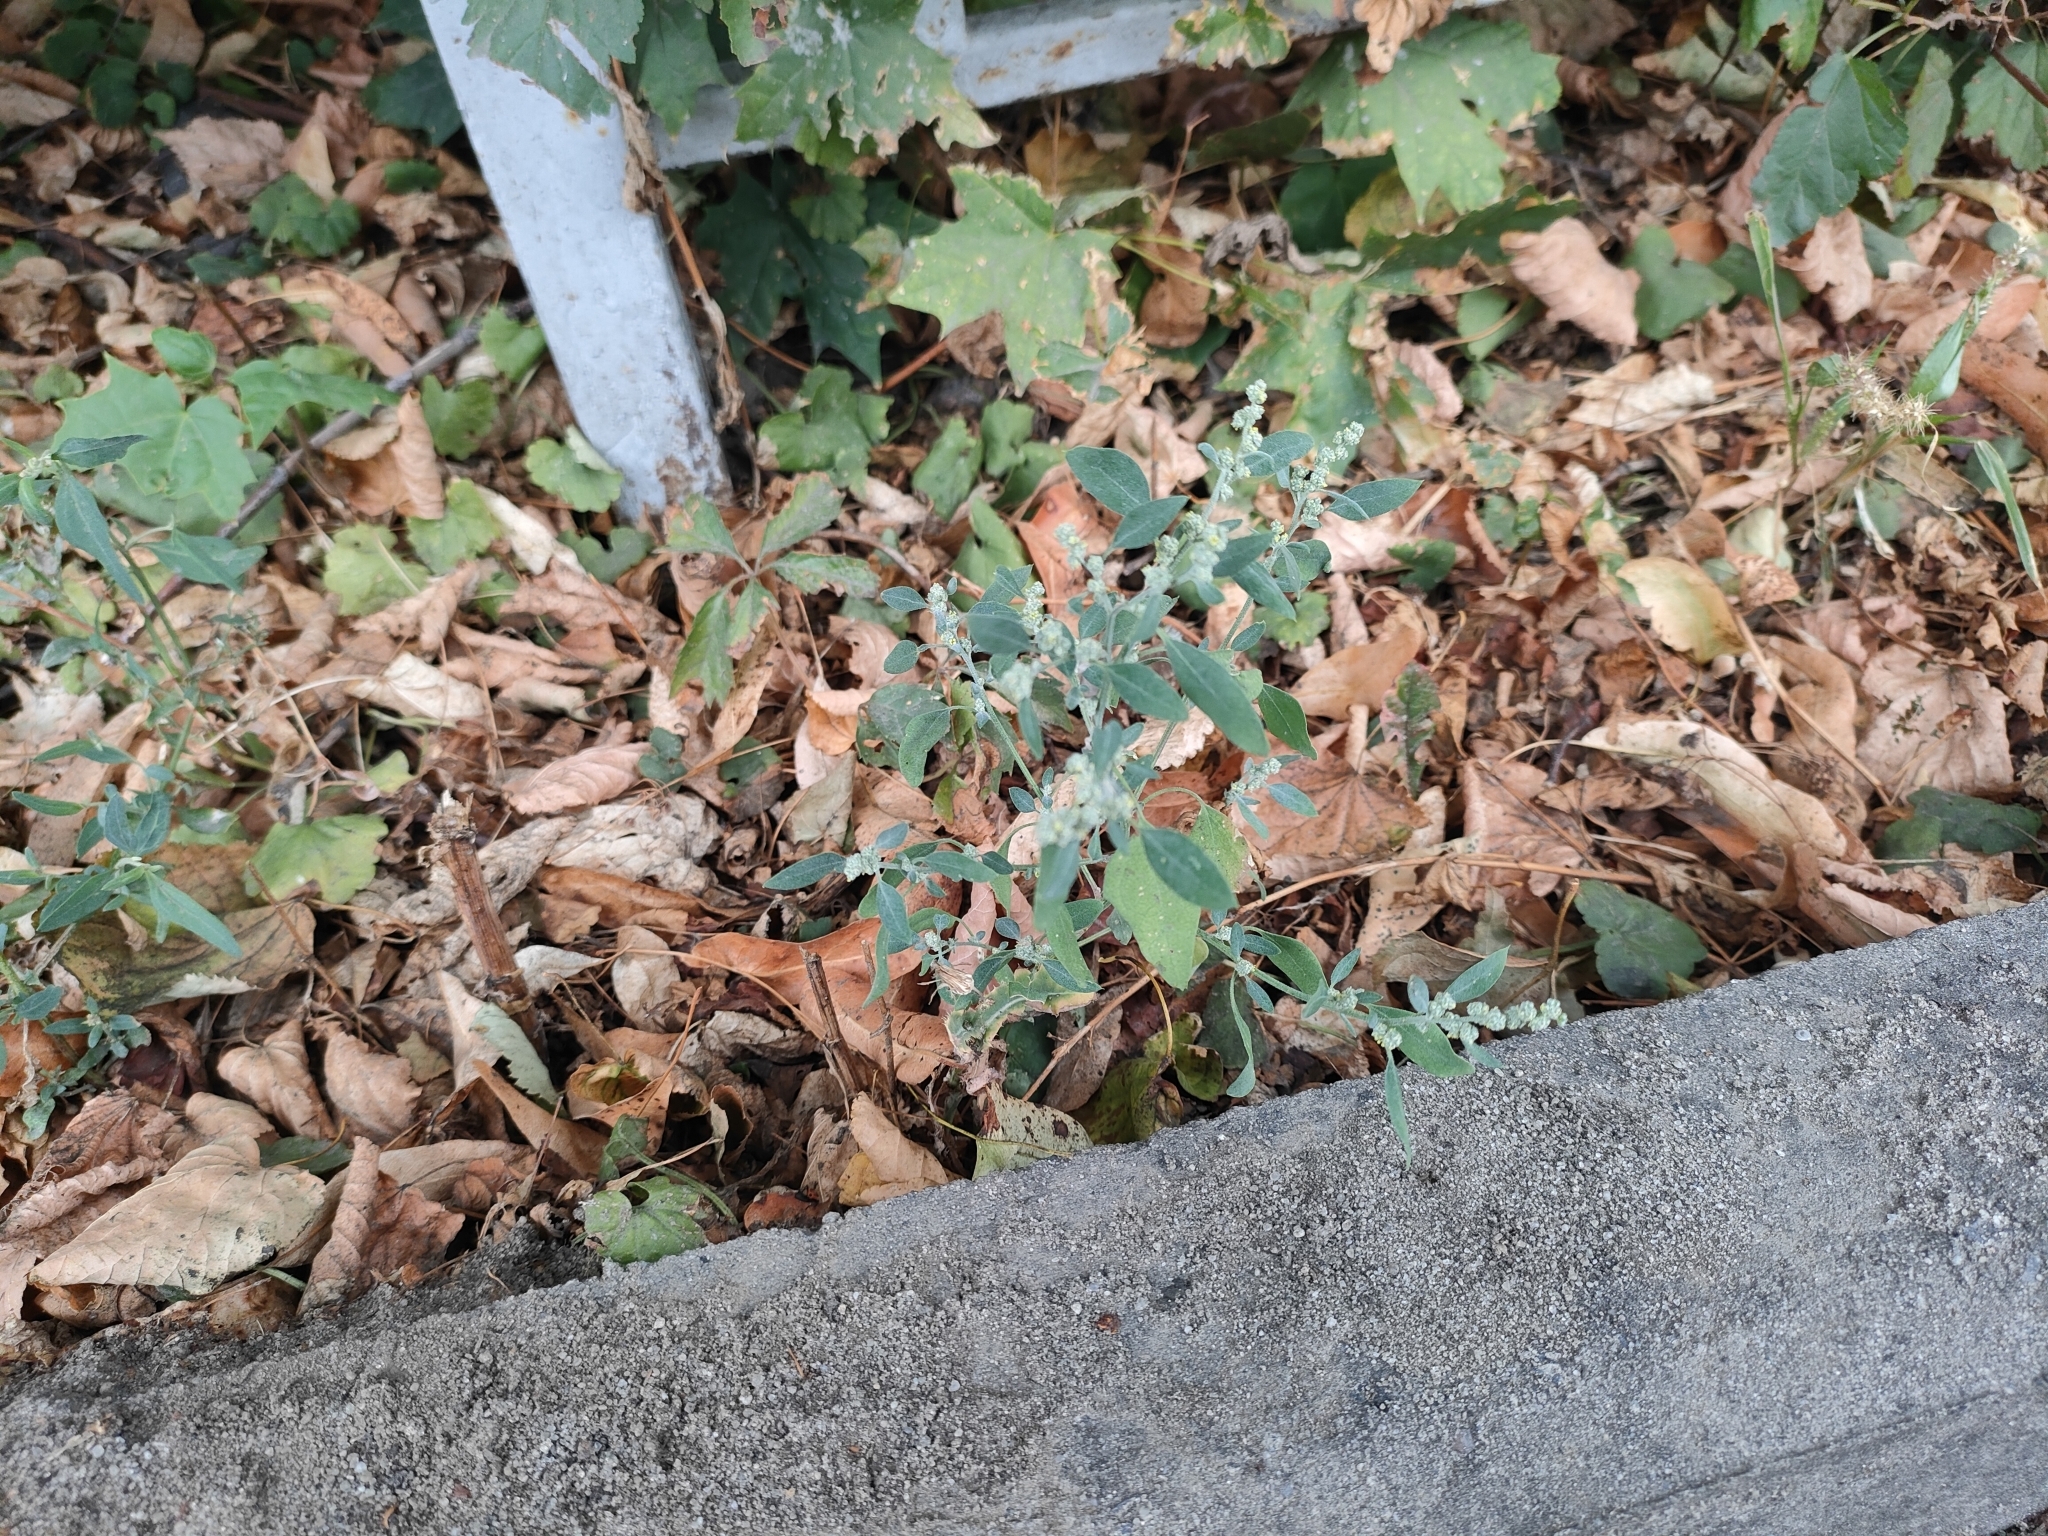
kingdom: Plantae
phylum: Tracheophyta
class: Magnoliopsida
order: Caryophyllales
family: Amaranthaceae
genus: Chenopodium
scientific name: Chenopodium album
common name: Fat-hen
